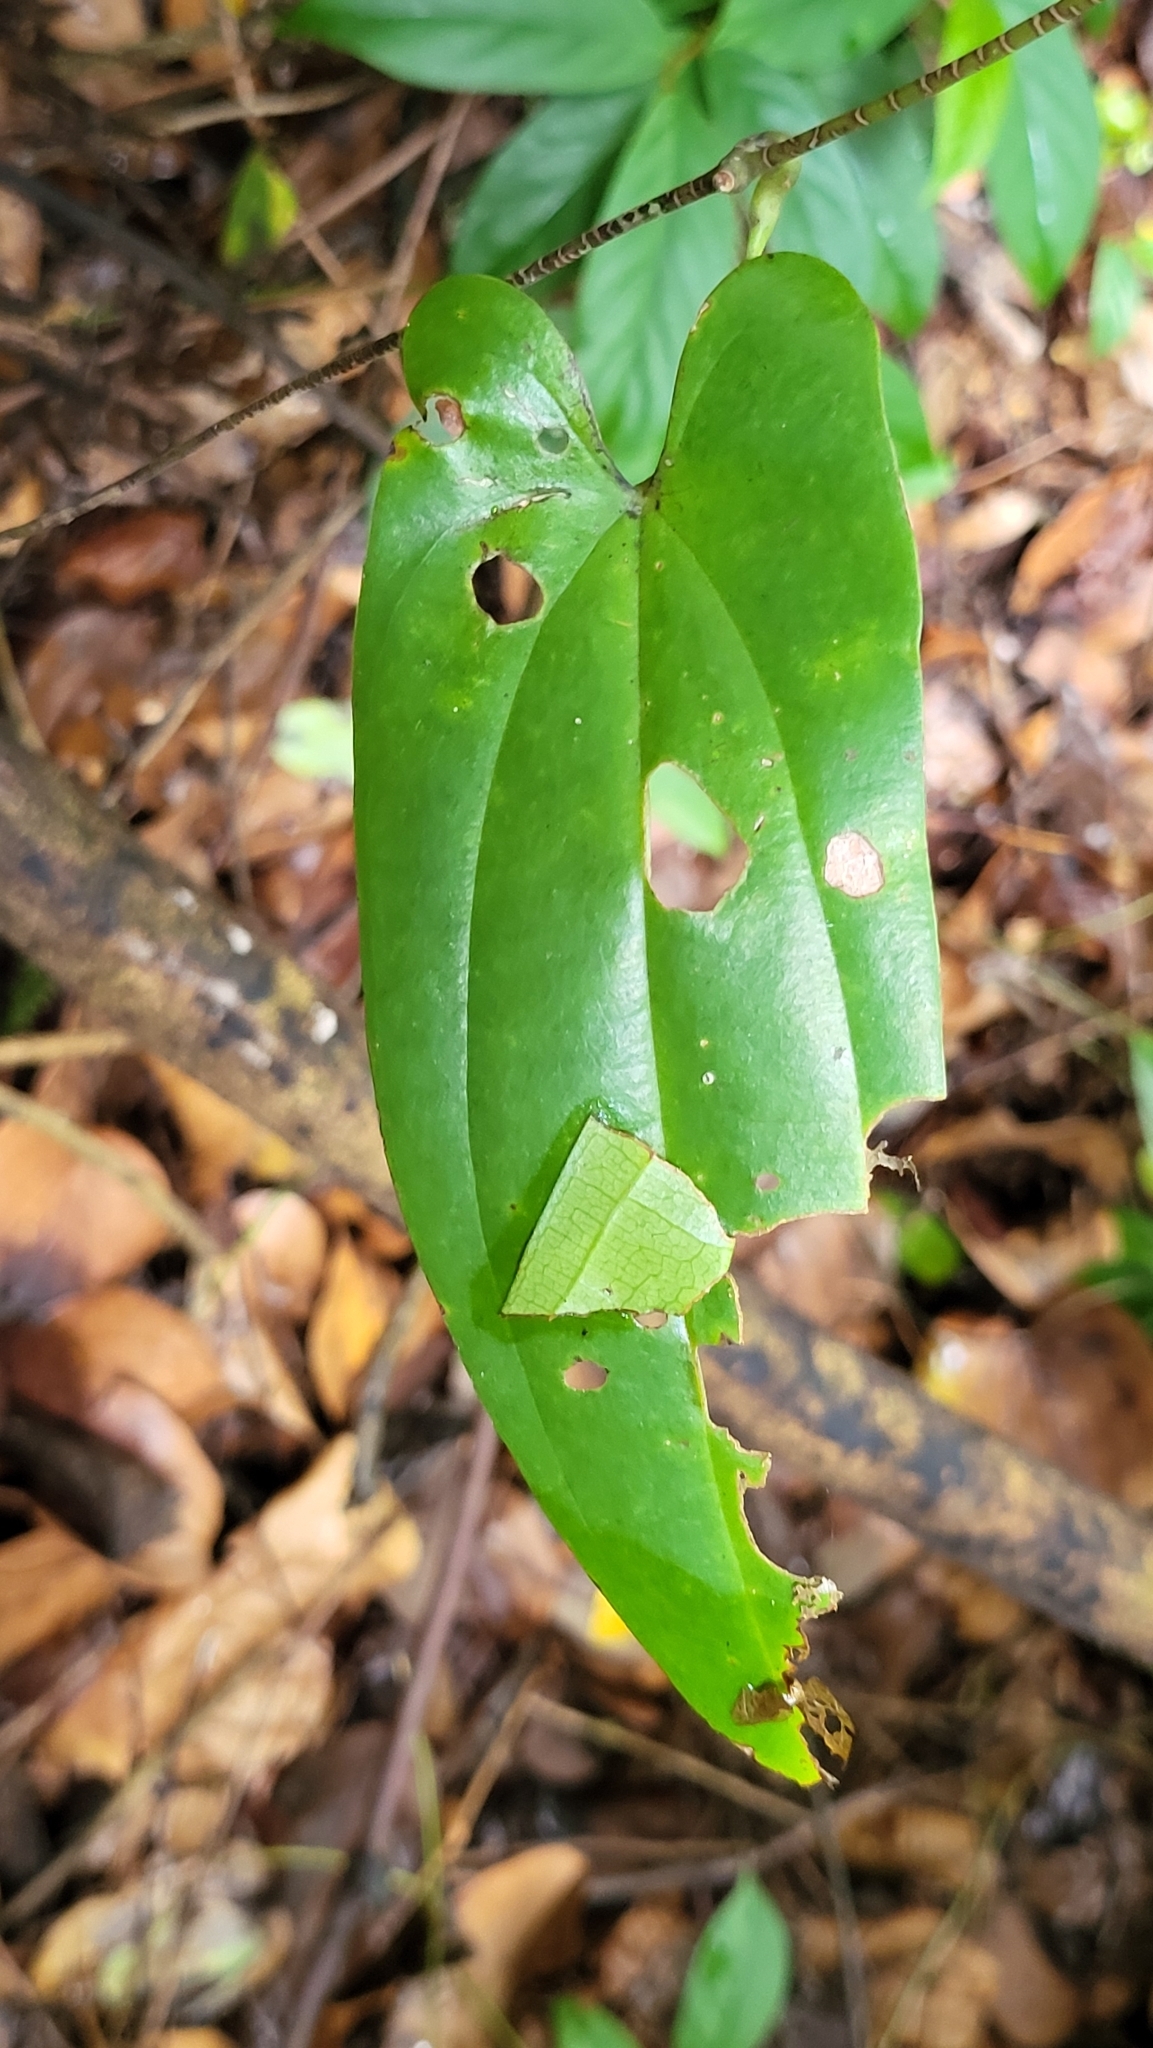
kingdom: Plantae
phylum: Tracheophyta
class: Liliopsida
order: Dioscoreales
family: Dioscoreaceae
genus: Dioscorea
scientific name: Dioscorea pyrifolia
